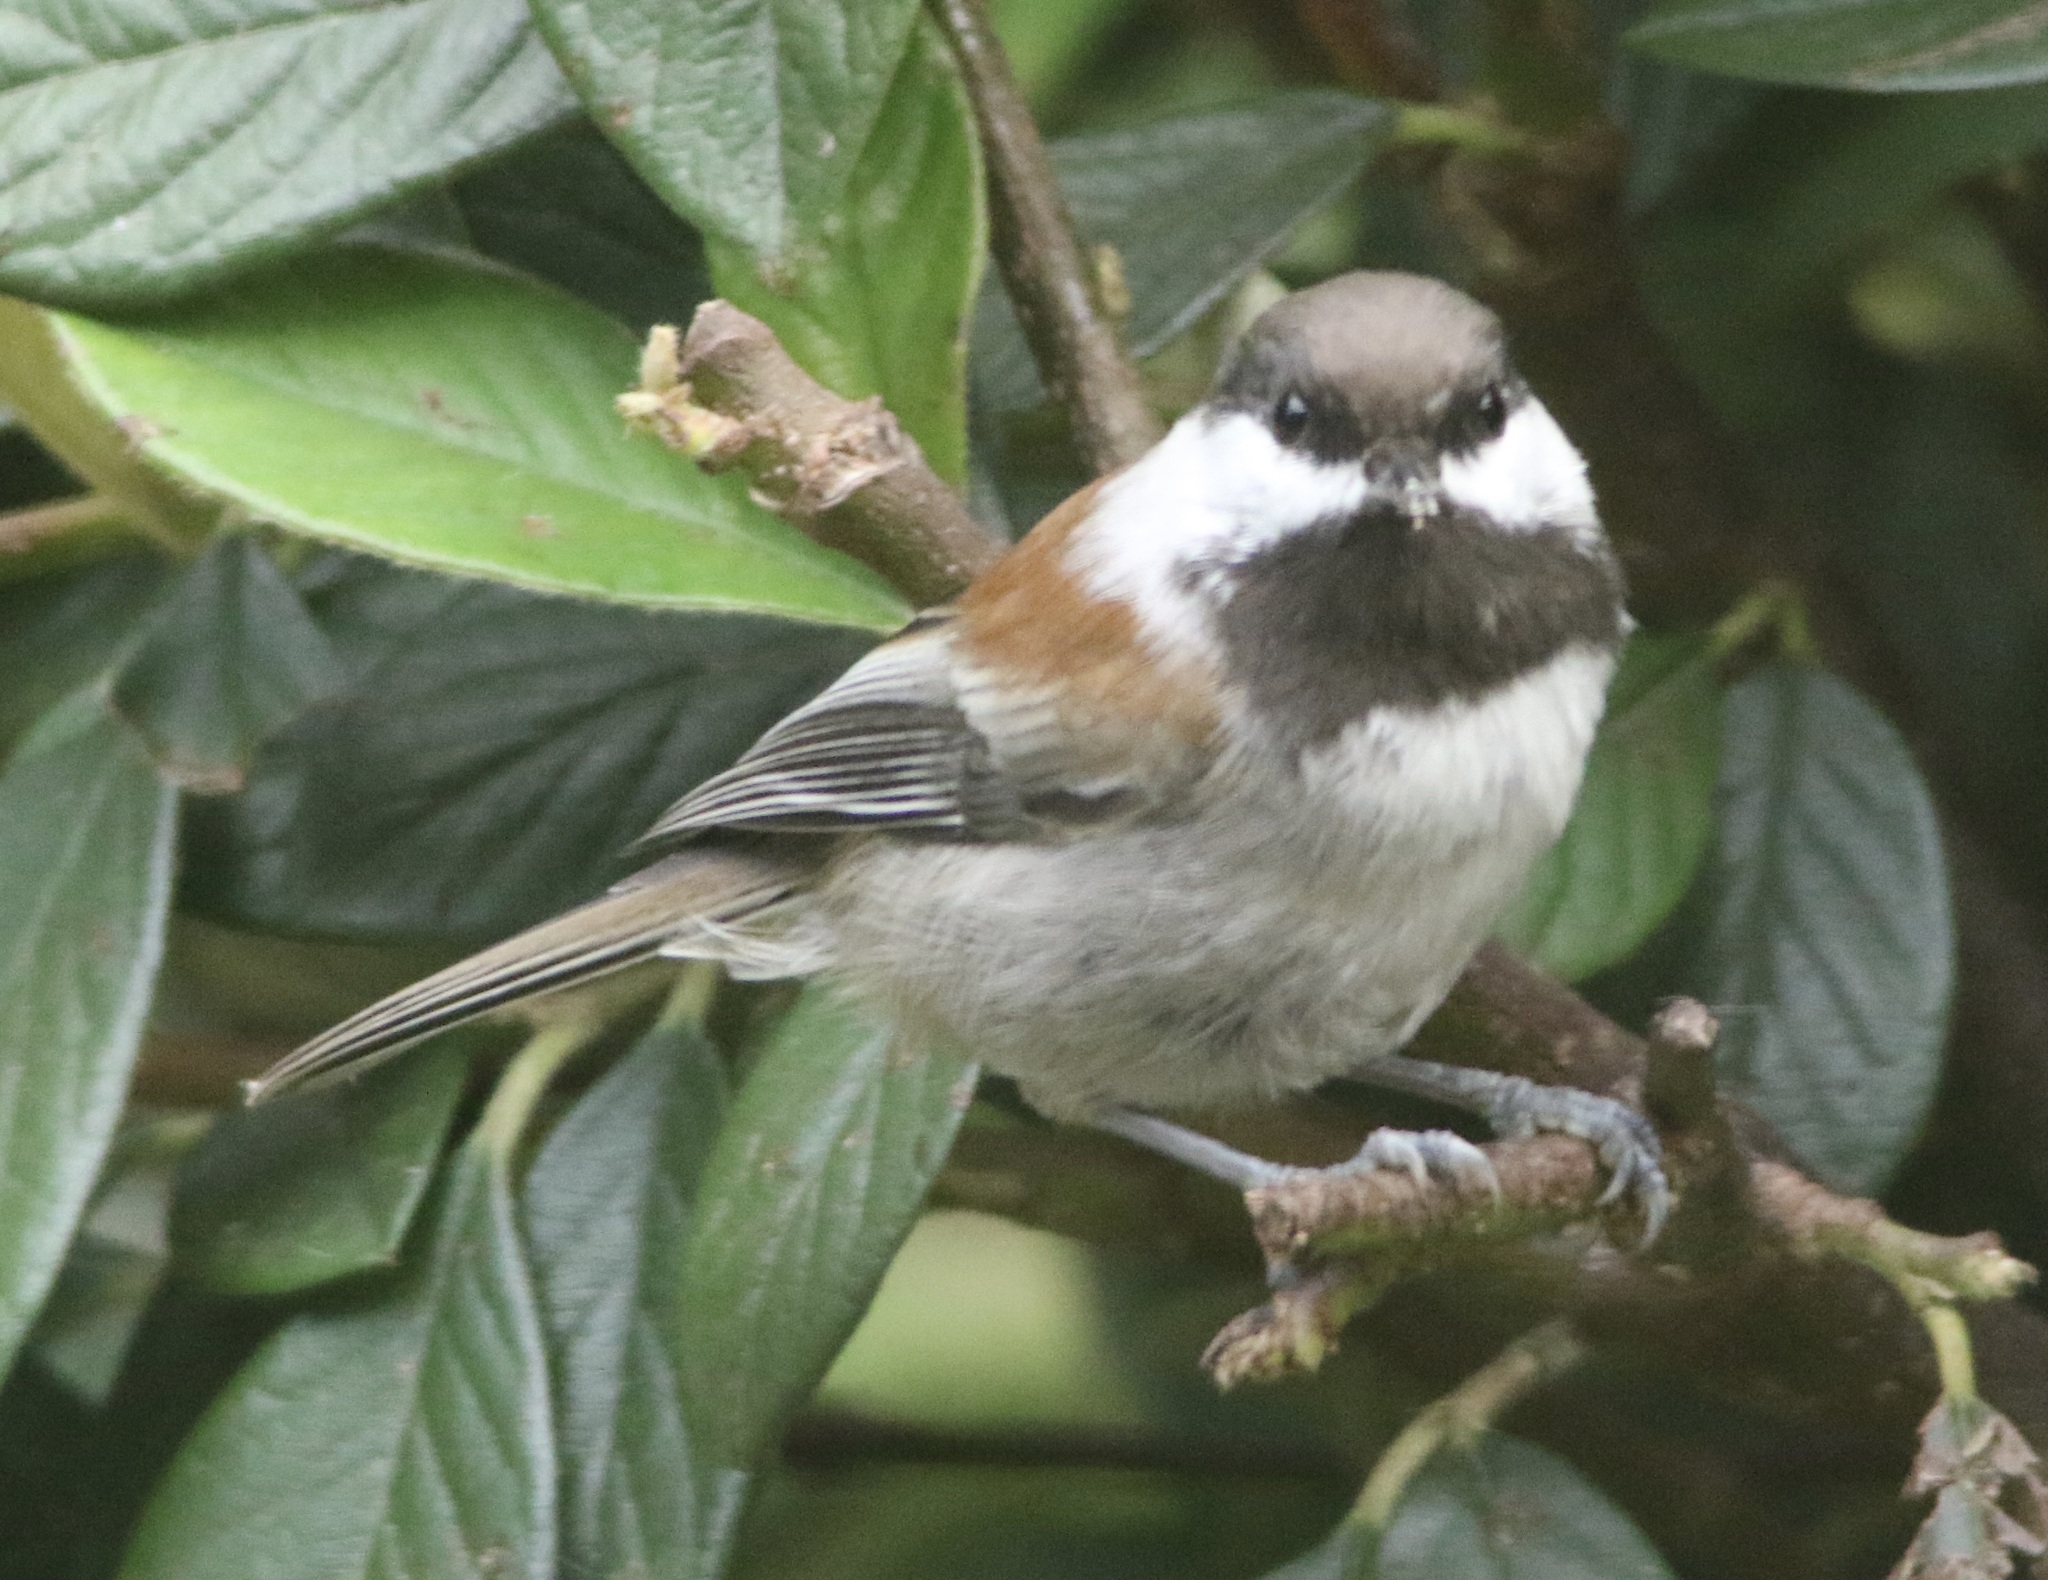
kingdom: Animalia
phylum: Chordata
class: Aves
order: Passeriformes
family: Paridae
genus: Poecile
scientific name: Poecile rufescens
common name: Chestnut-backed chickadee
